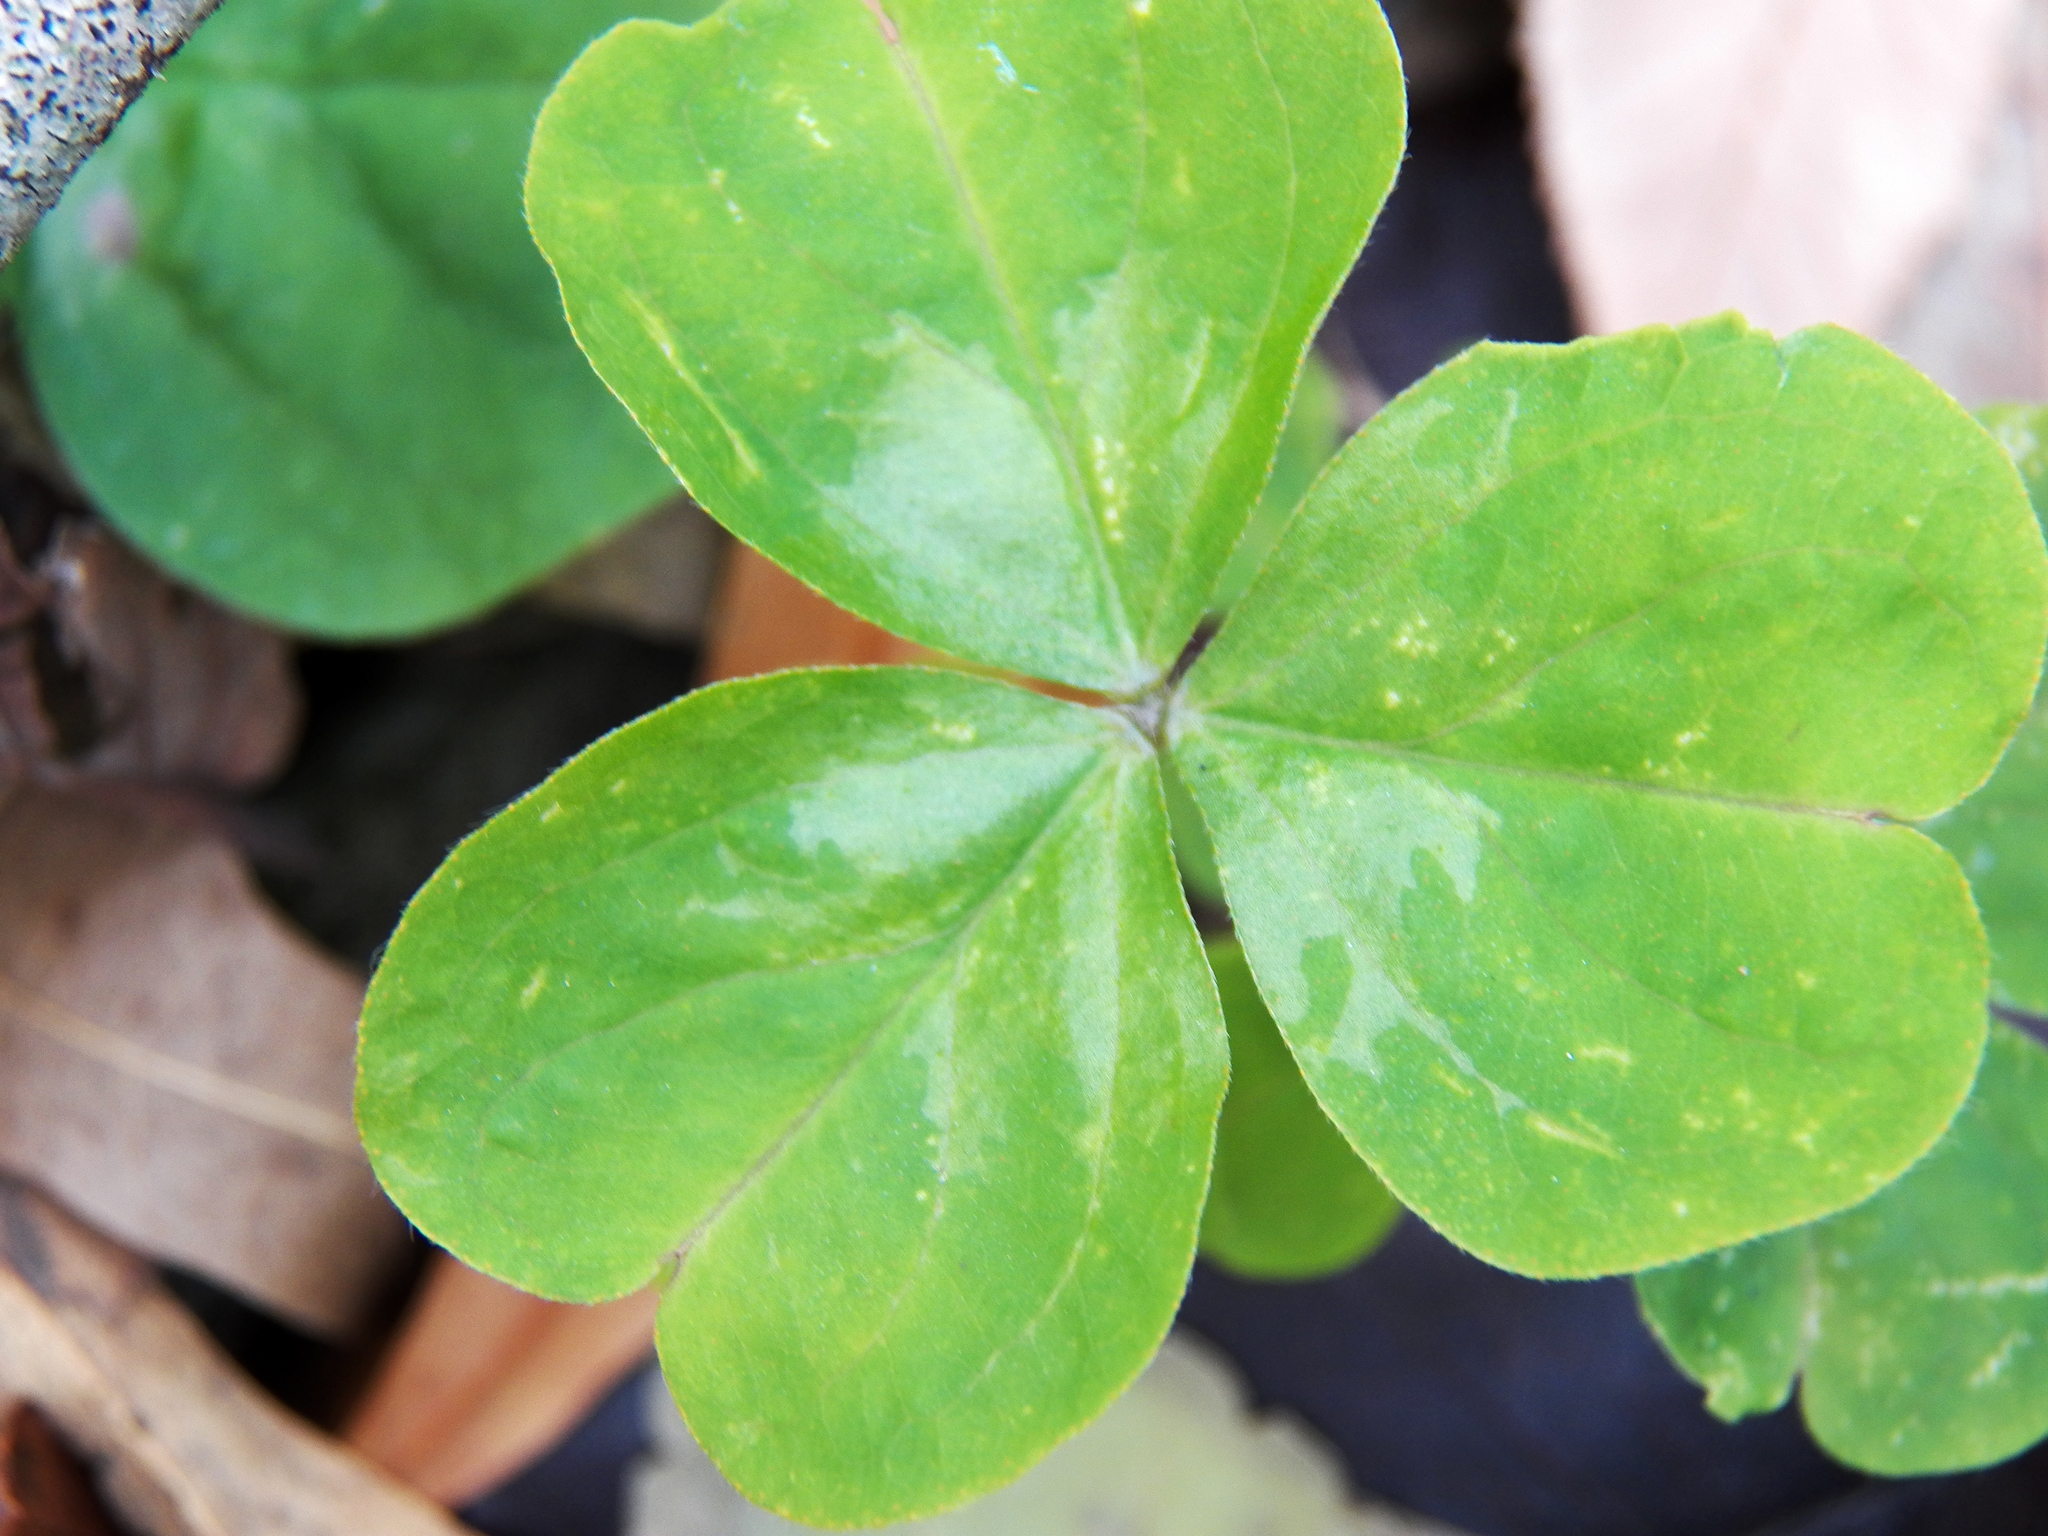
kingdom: Plantae
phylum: Tracheophyta
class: Magnoliopsida
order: Oxalidales
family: Oxalidaceae
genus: Oxalis
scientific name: Oxalis debilis
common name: Large-flowered pink-sorrel
